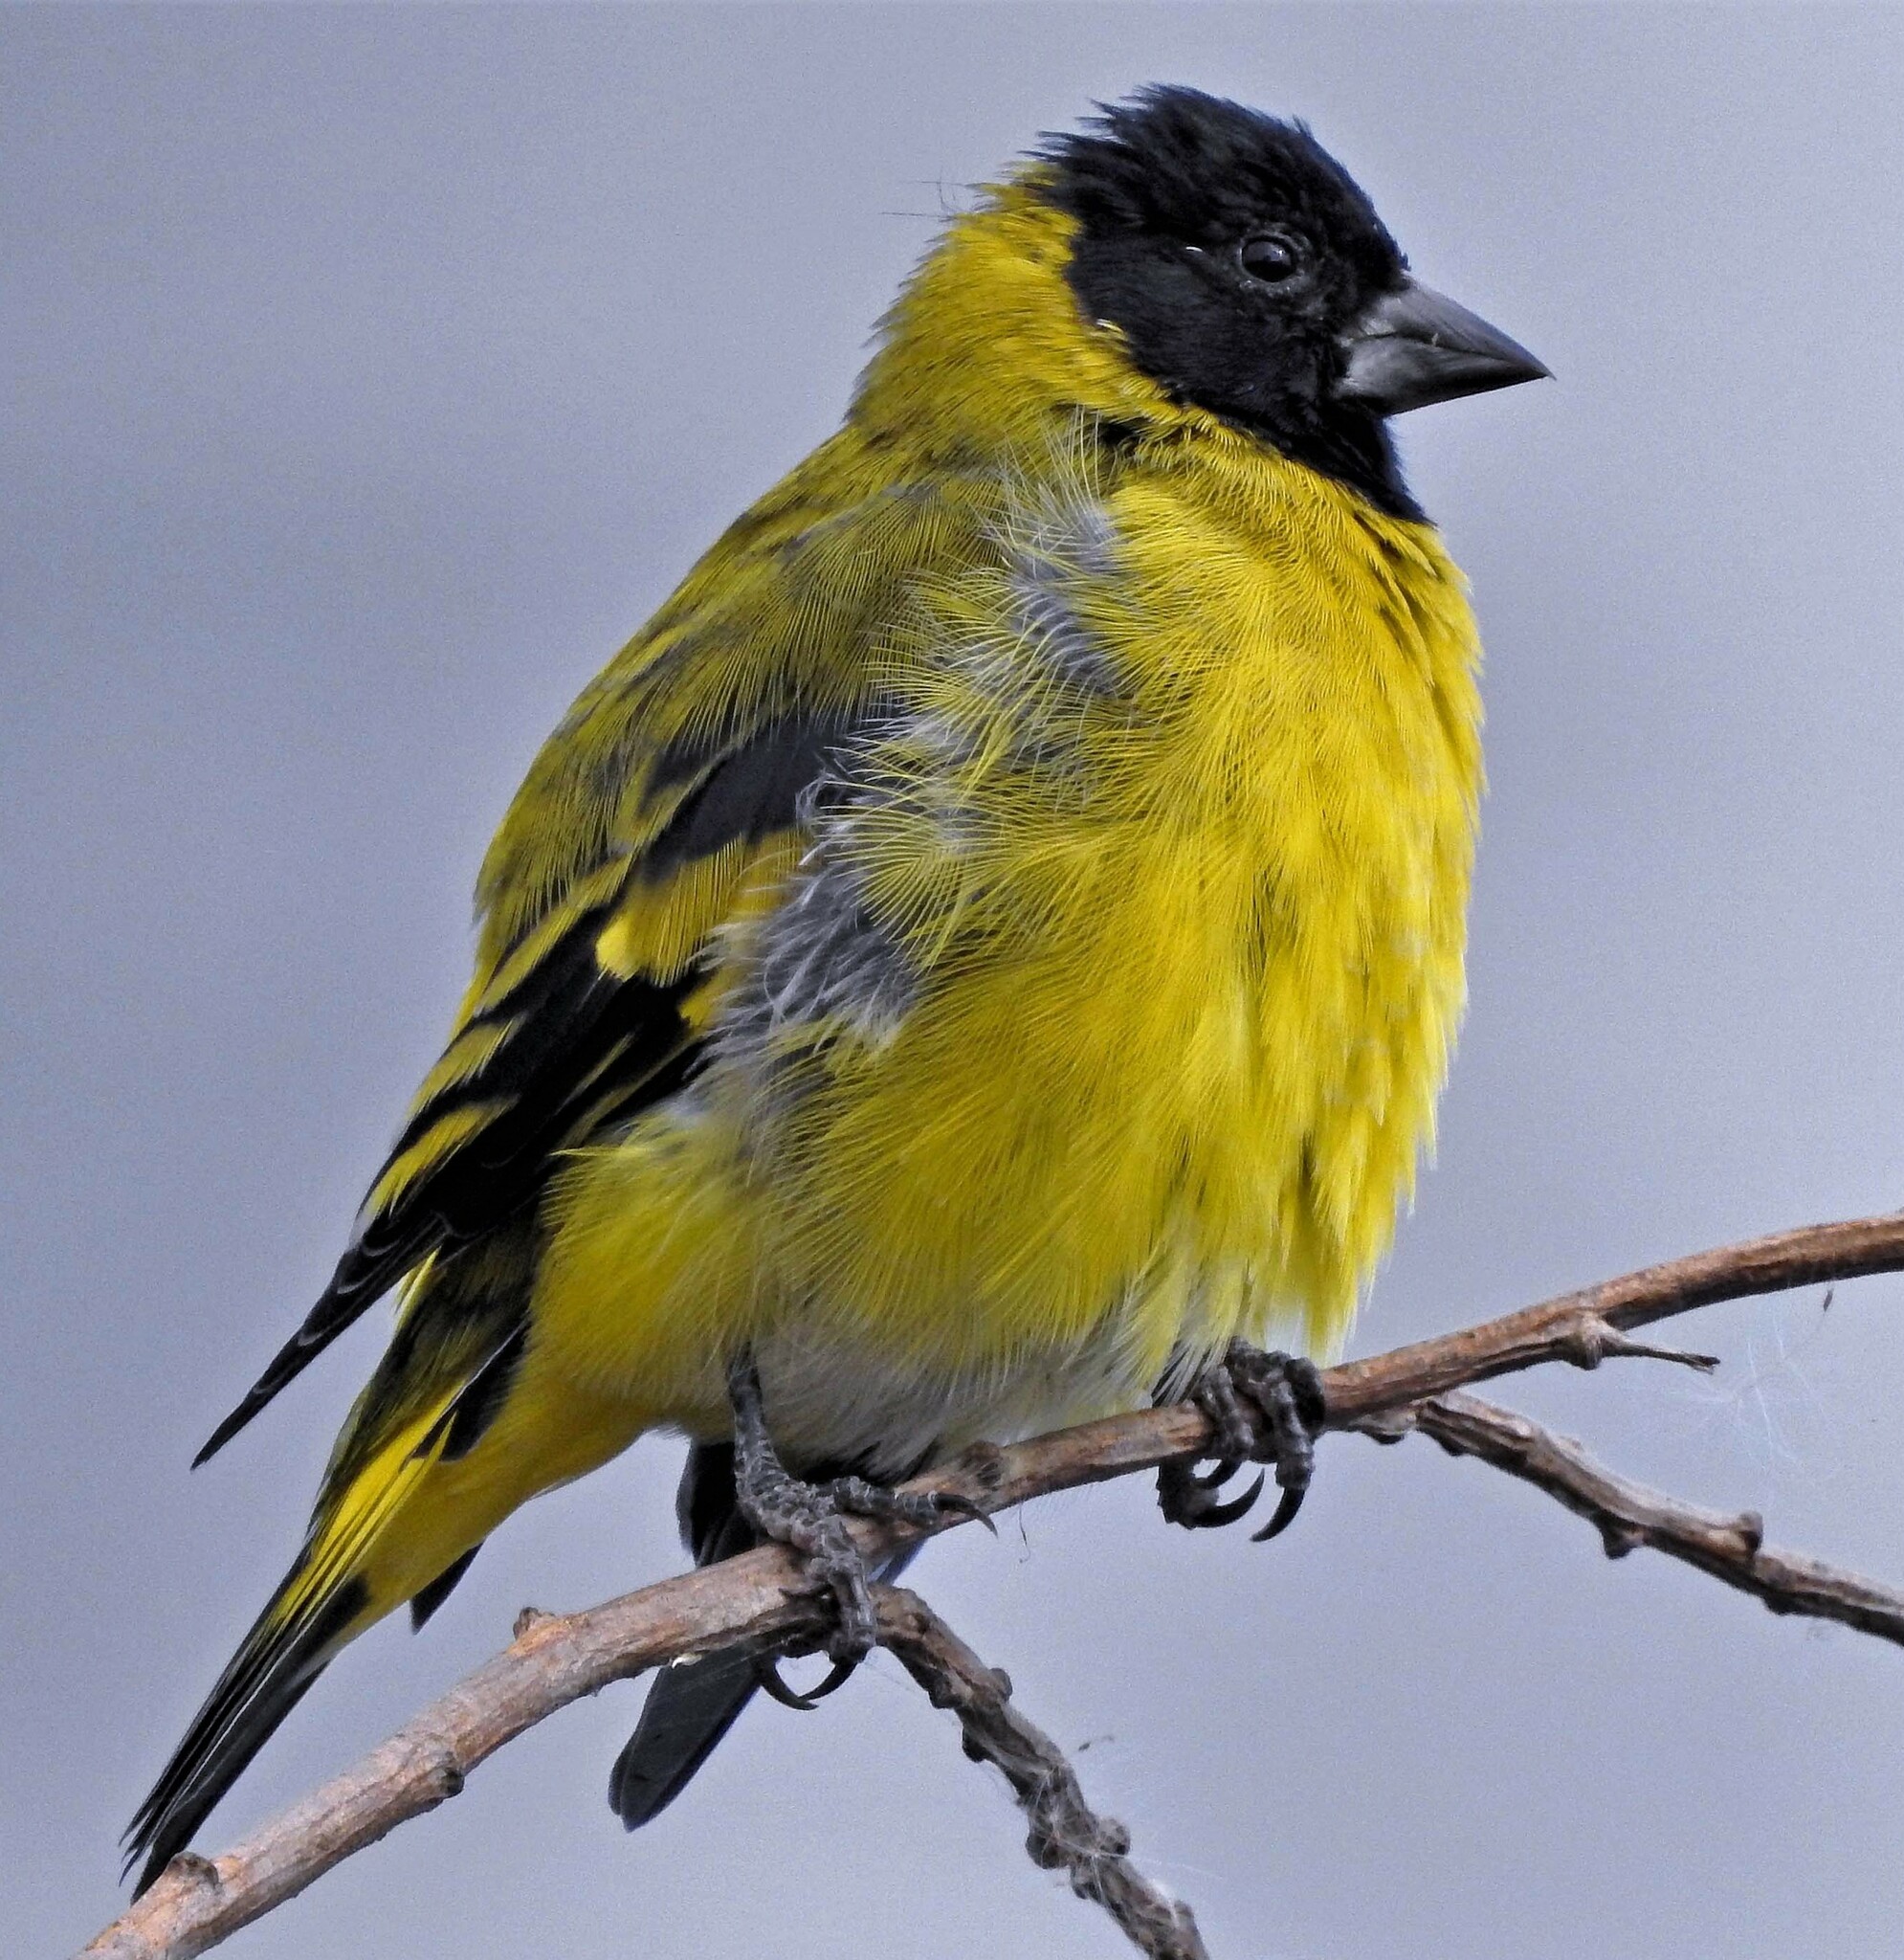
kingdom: Animalia
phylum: Chordata
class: Aves
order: Passeriformes
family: Fringillidae
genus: Spinus
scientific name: Spinus magellanicus
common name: Hooded siskin
